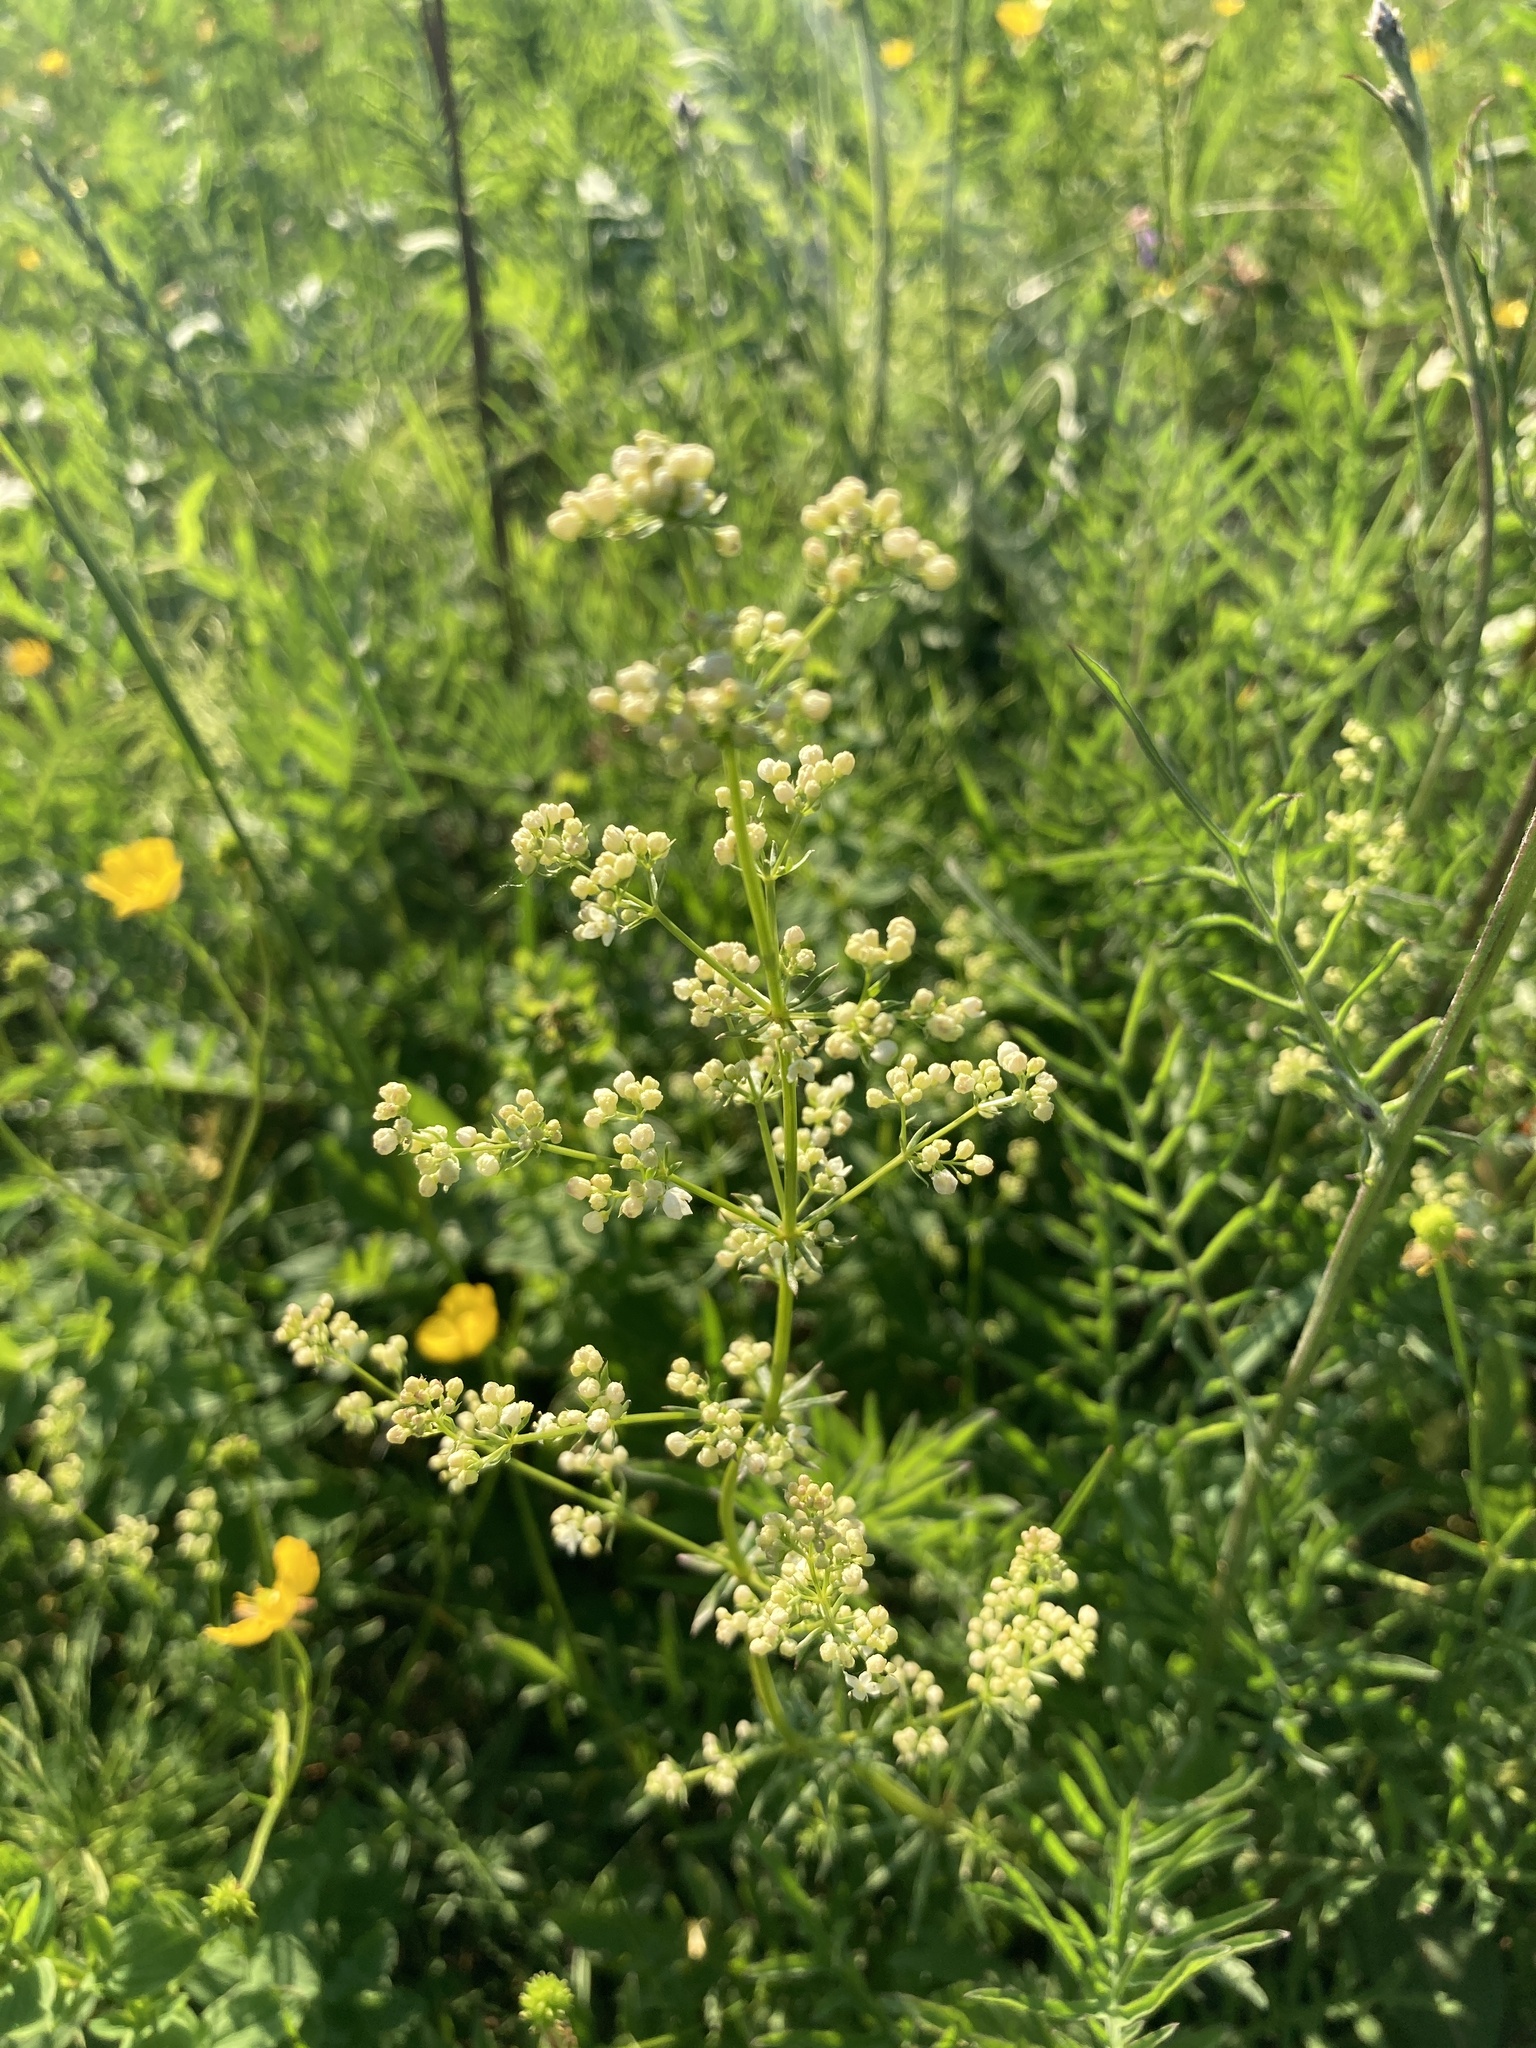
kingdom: Plantae
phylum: Tracheophyta
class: Magnoliopsida
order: Gentianales
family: Rubiaceae
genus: Galium
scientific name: Galium mollugo
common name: Hedge bedstraw
